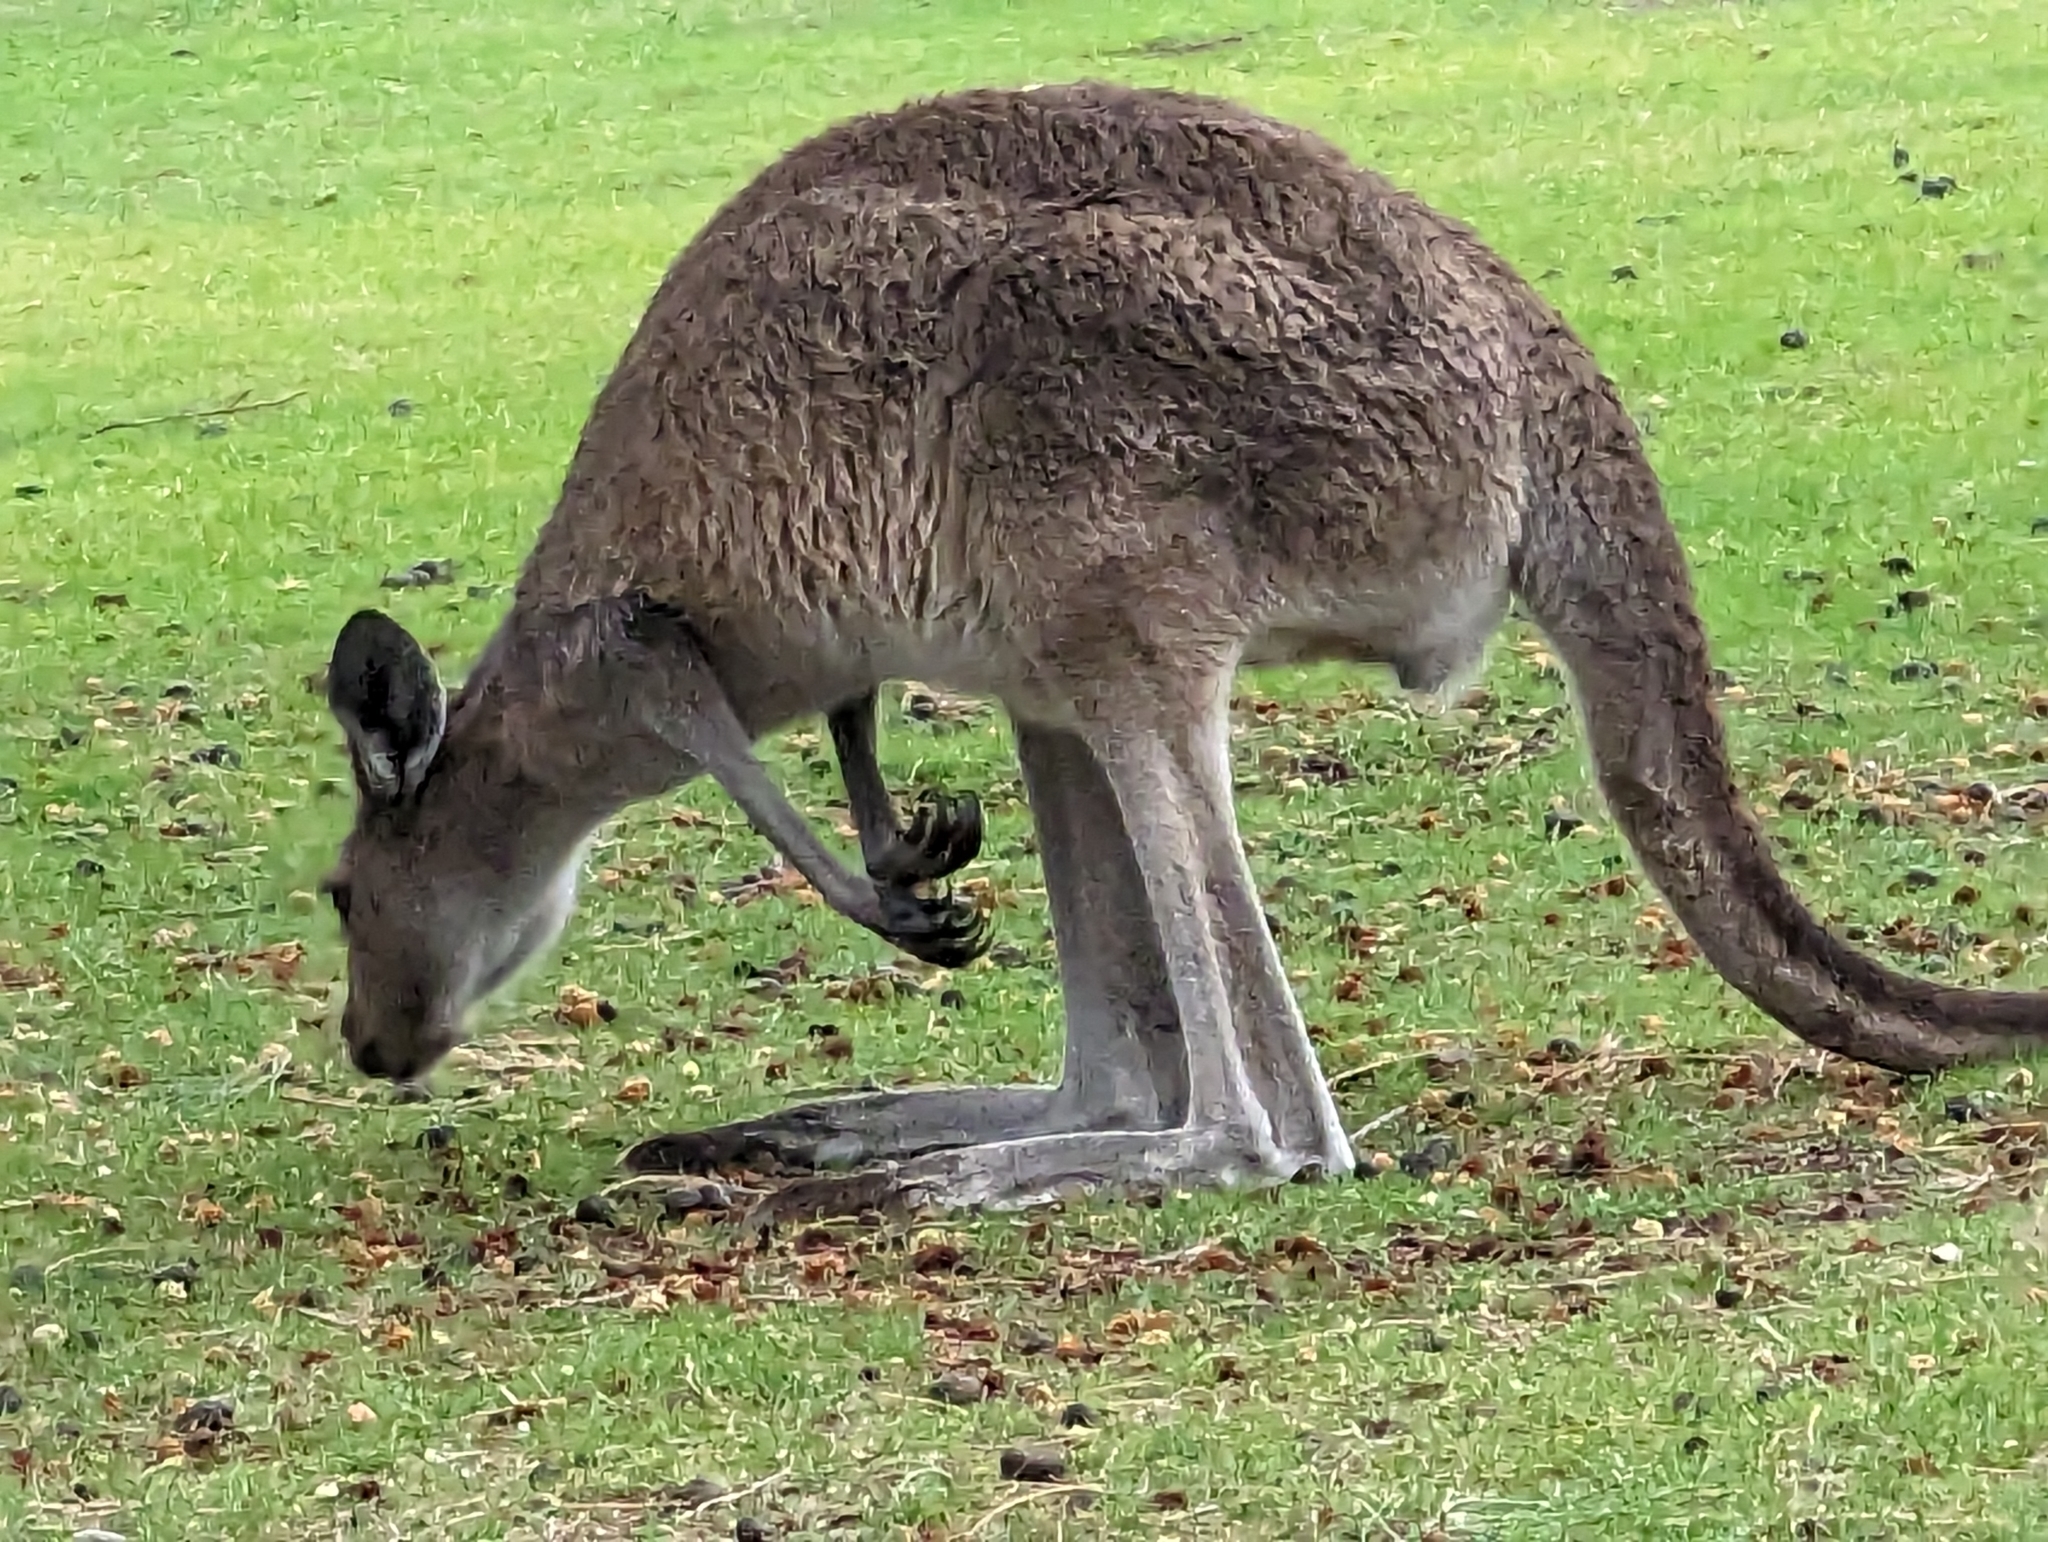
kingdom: Animalia
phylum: Chordata
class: Mammalia
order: Diprotodontia
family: Macropodidae
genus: Macropus
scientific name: Macropus fuliginosus
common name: Western grey kangaroo
